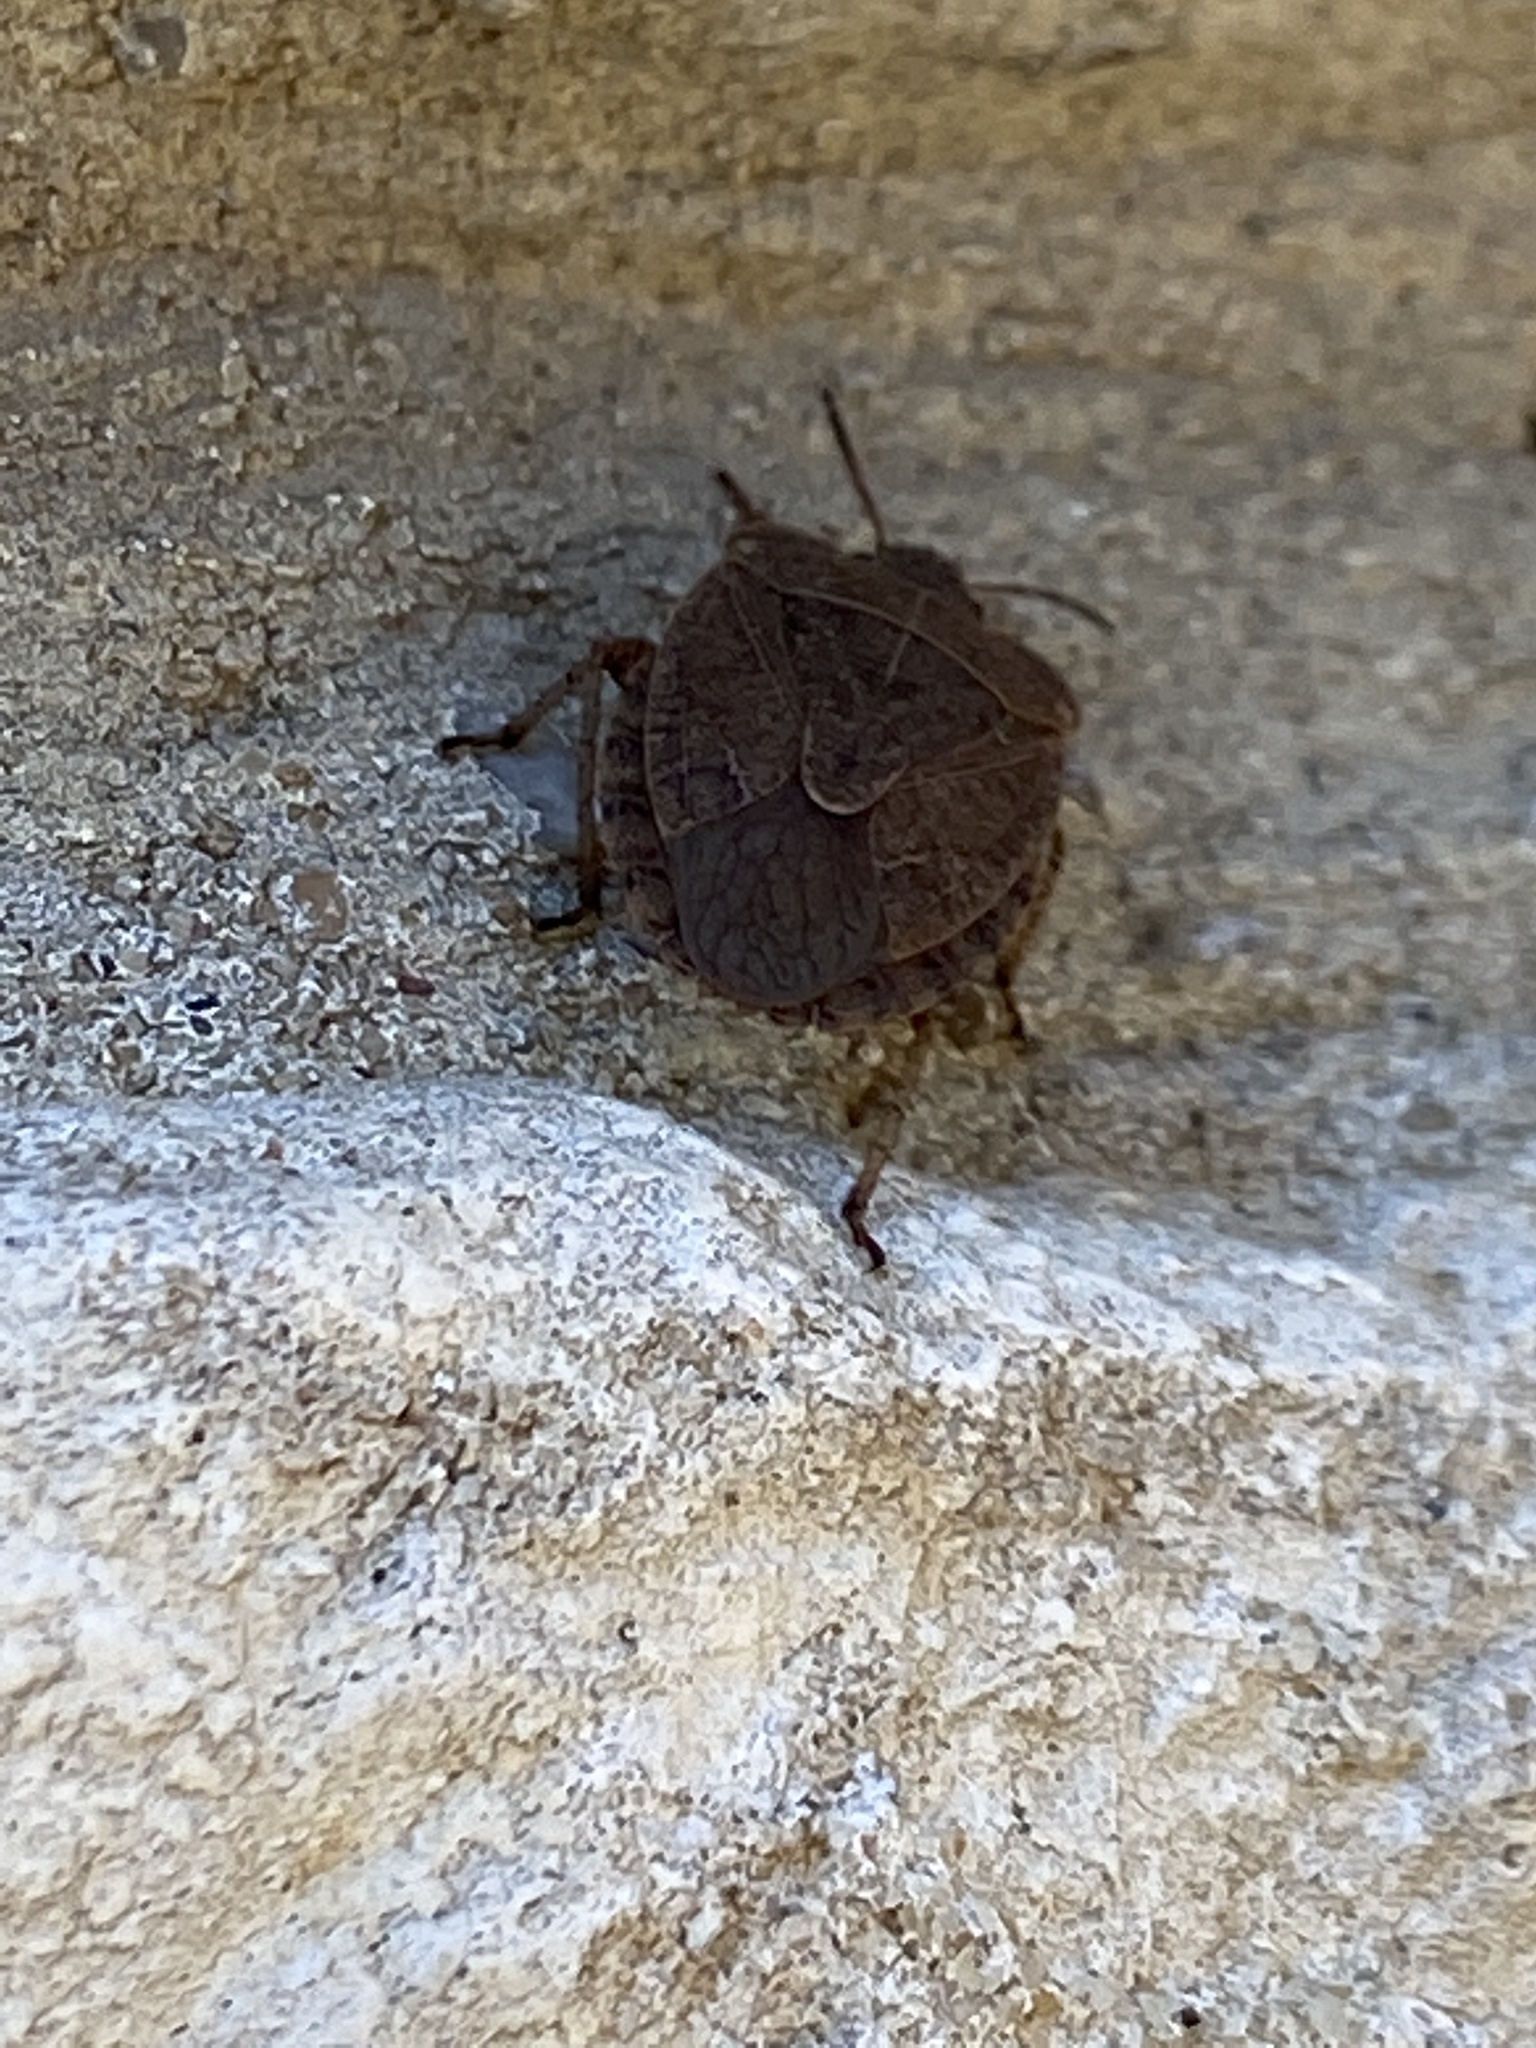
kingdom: Animalia
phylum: Arthropoda
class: Insecta
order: Hemiptera
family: Pentatomidae
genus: Menecles
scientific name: Menecles insertus
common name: Elf shoe stink bug
